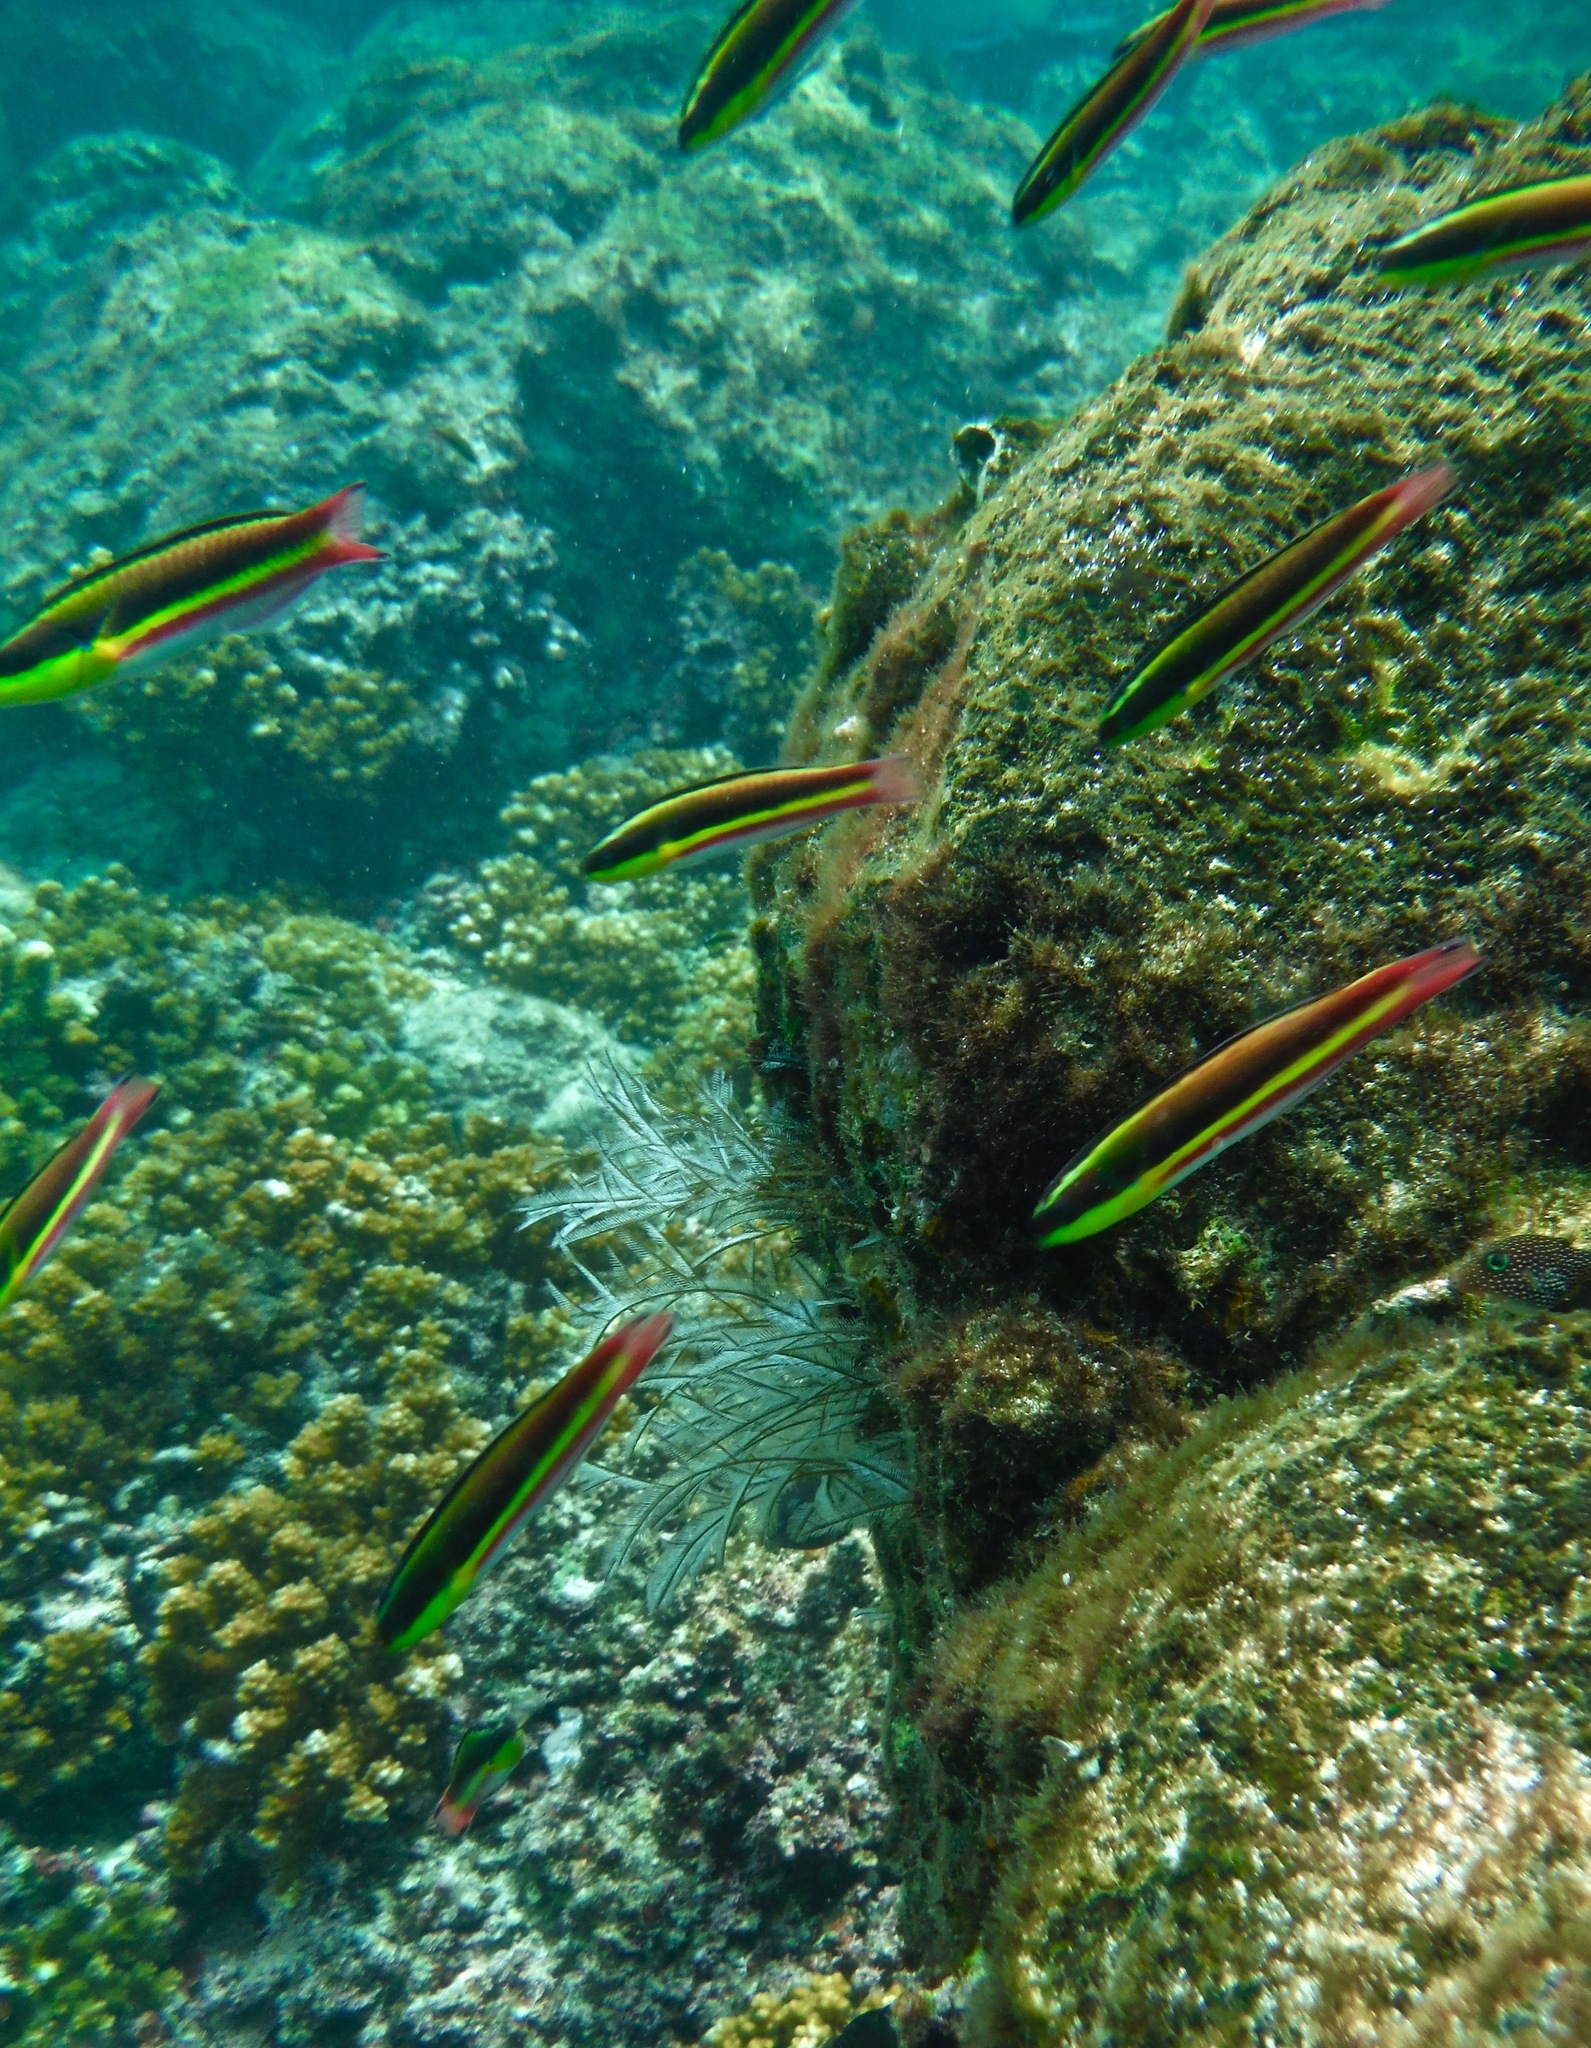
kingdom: Animalia
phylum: Chordata
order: Perciformes
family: Labridae
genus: Thalassoma
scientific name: Thalassoma lucasanum
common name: Cortez rainbow wrasse
